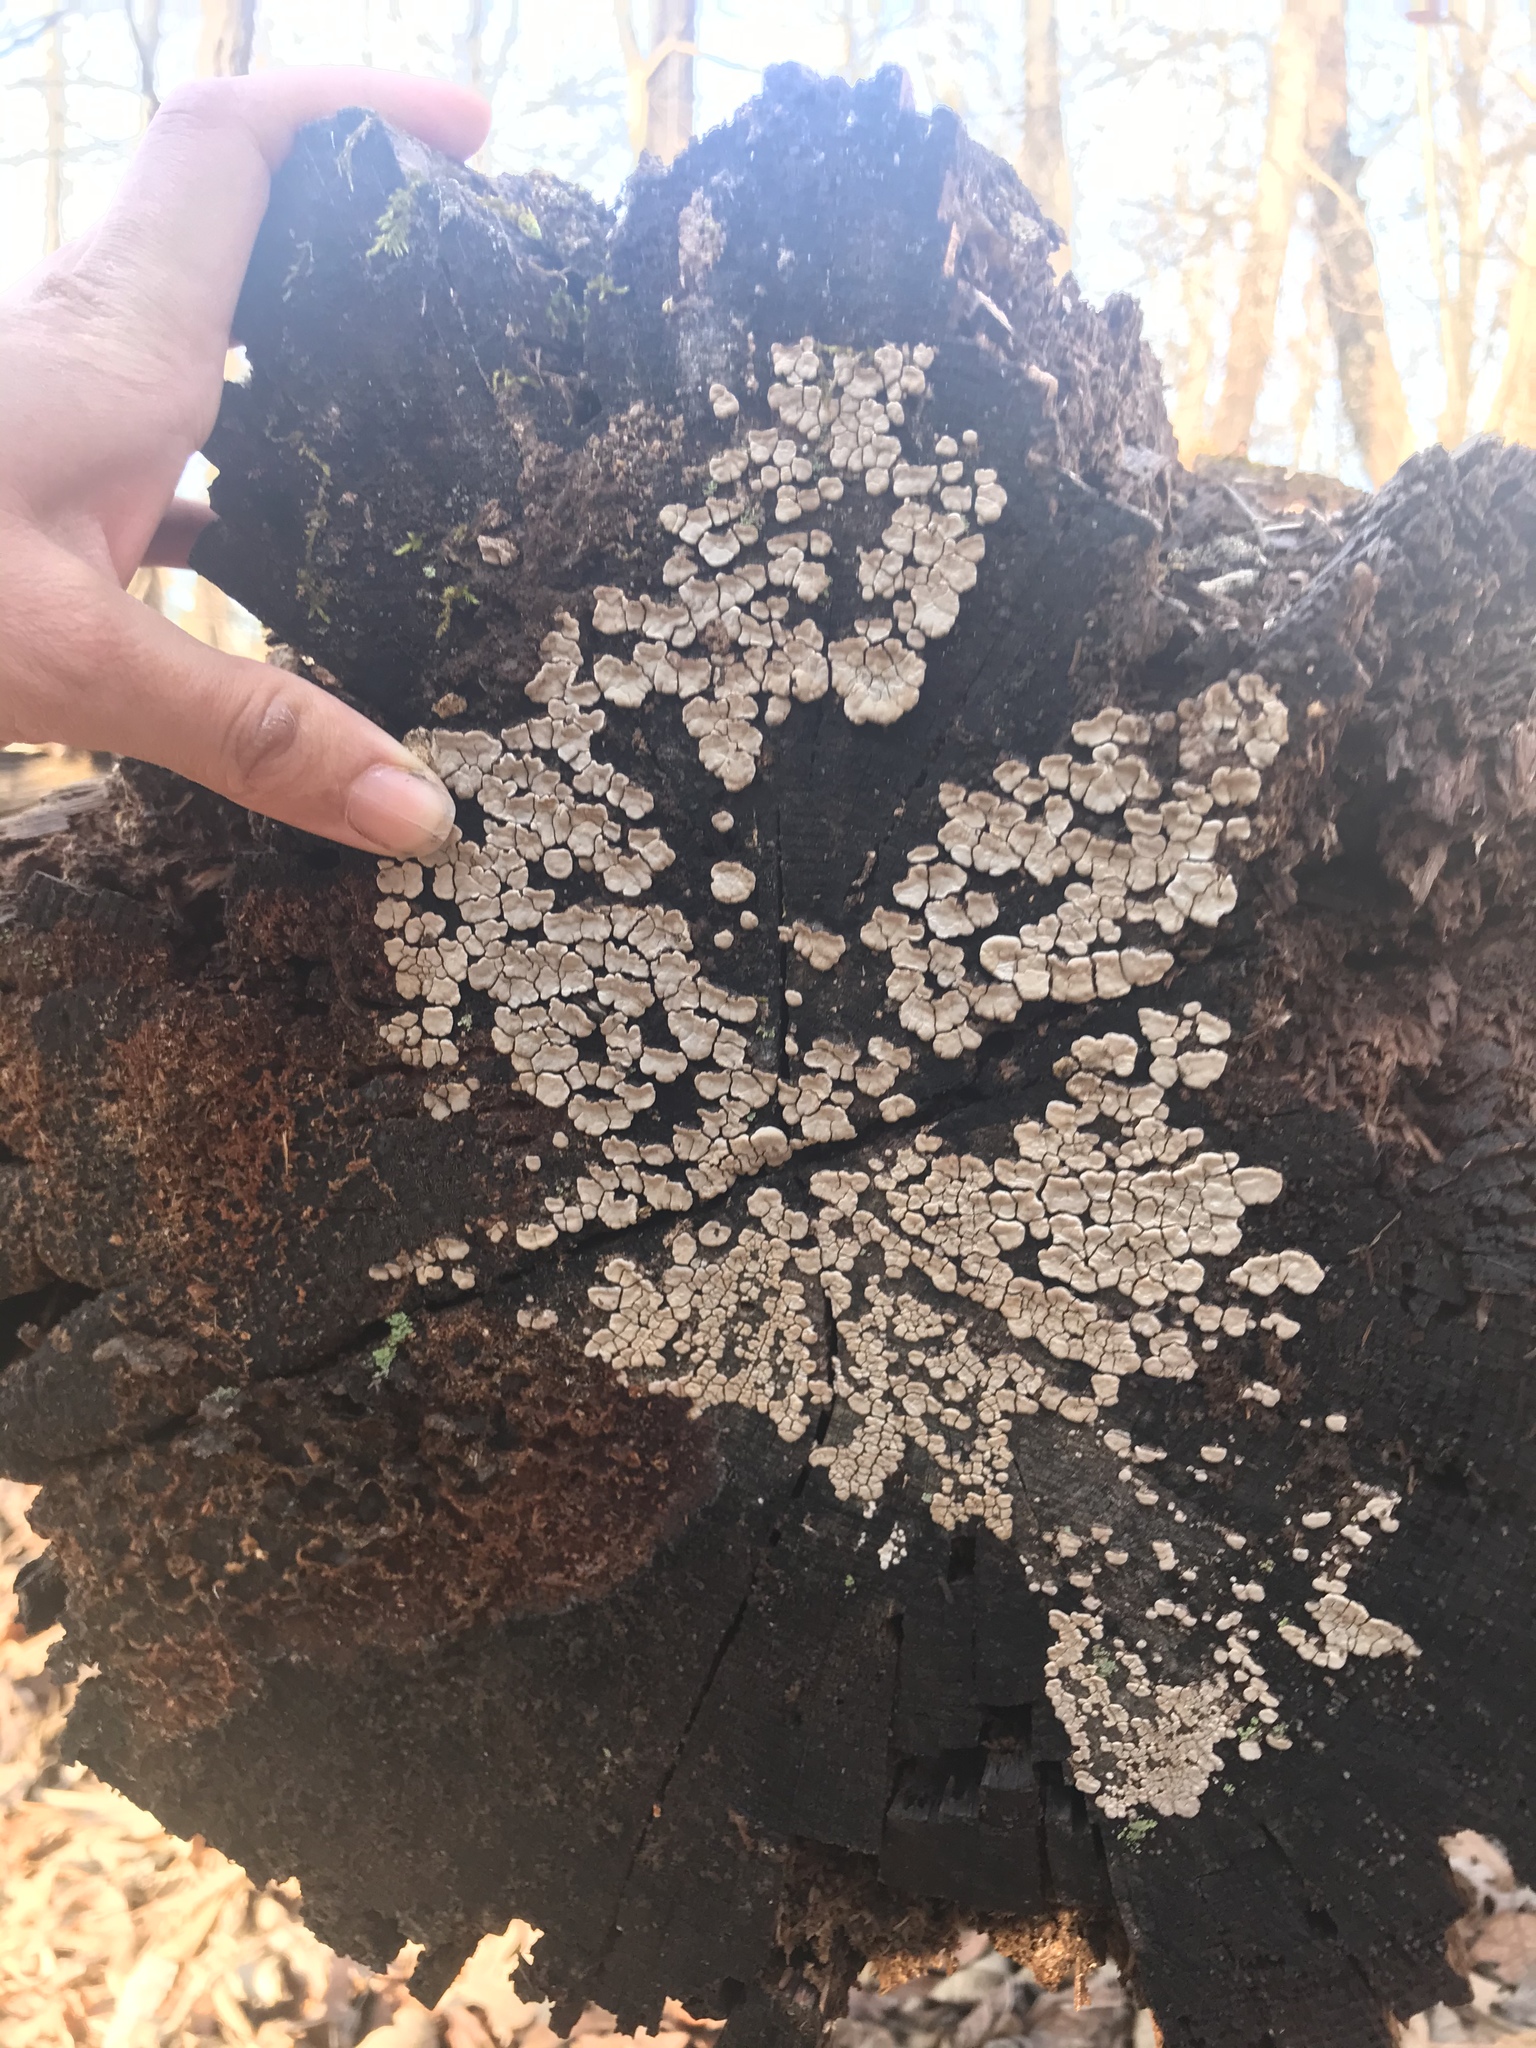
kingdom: Fungi
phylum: Basidiomycota
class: Agaricomycetes
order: Russulales
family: Stereaceae
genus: Xylobolus
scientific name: Xylobolus frustulatus
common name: Ceramic parchment
